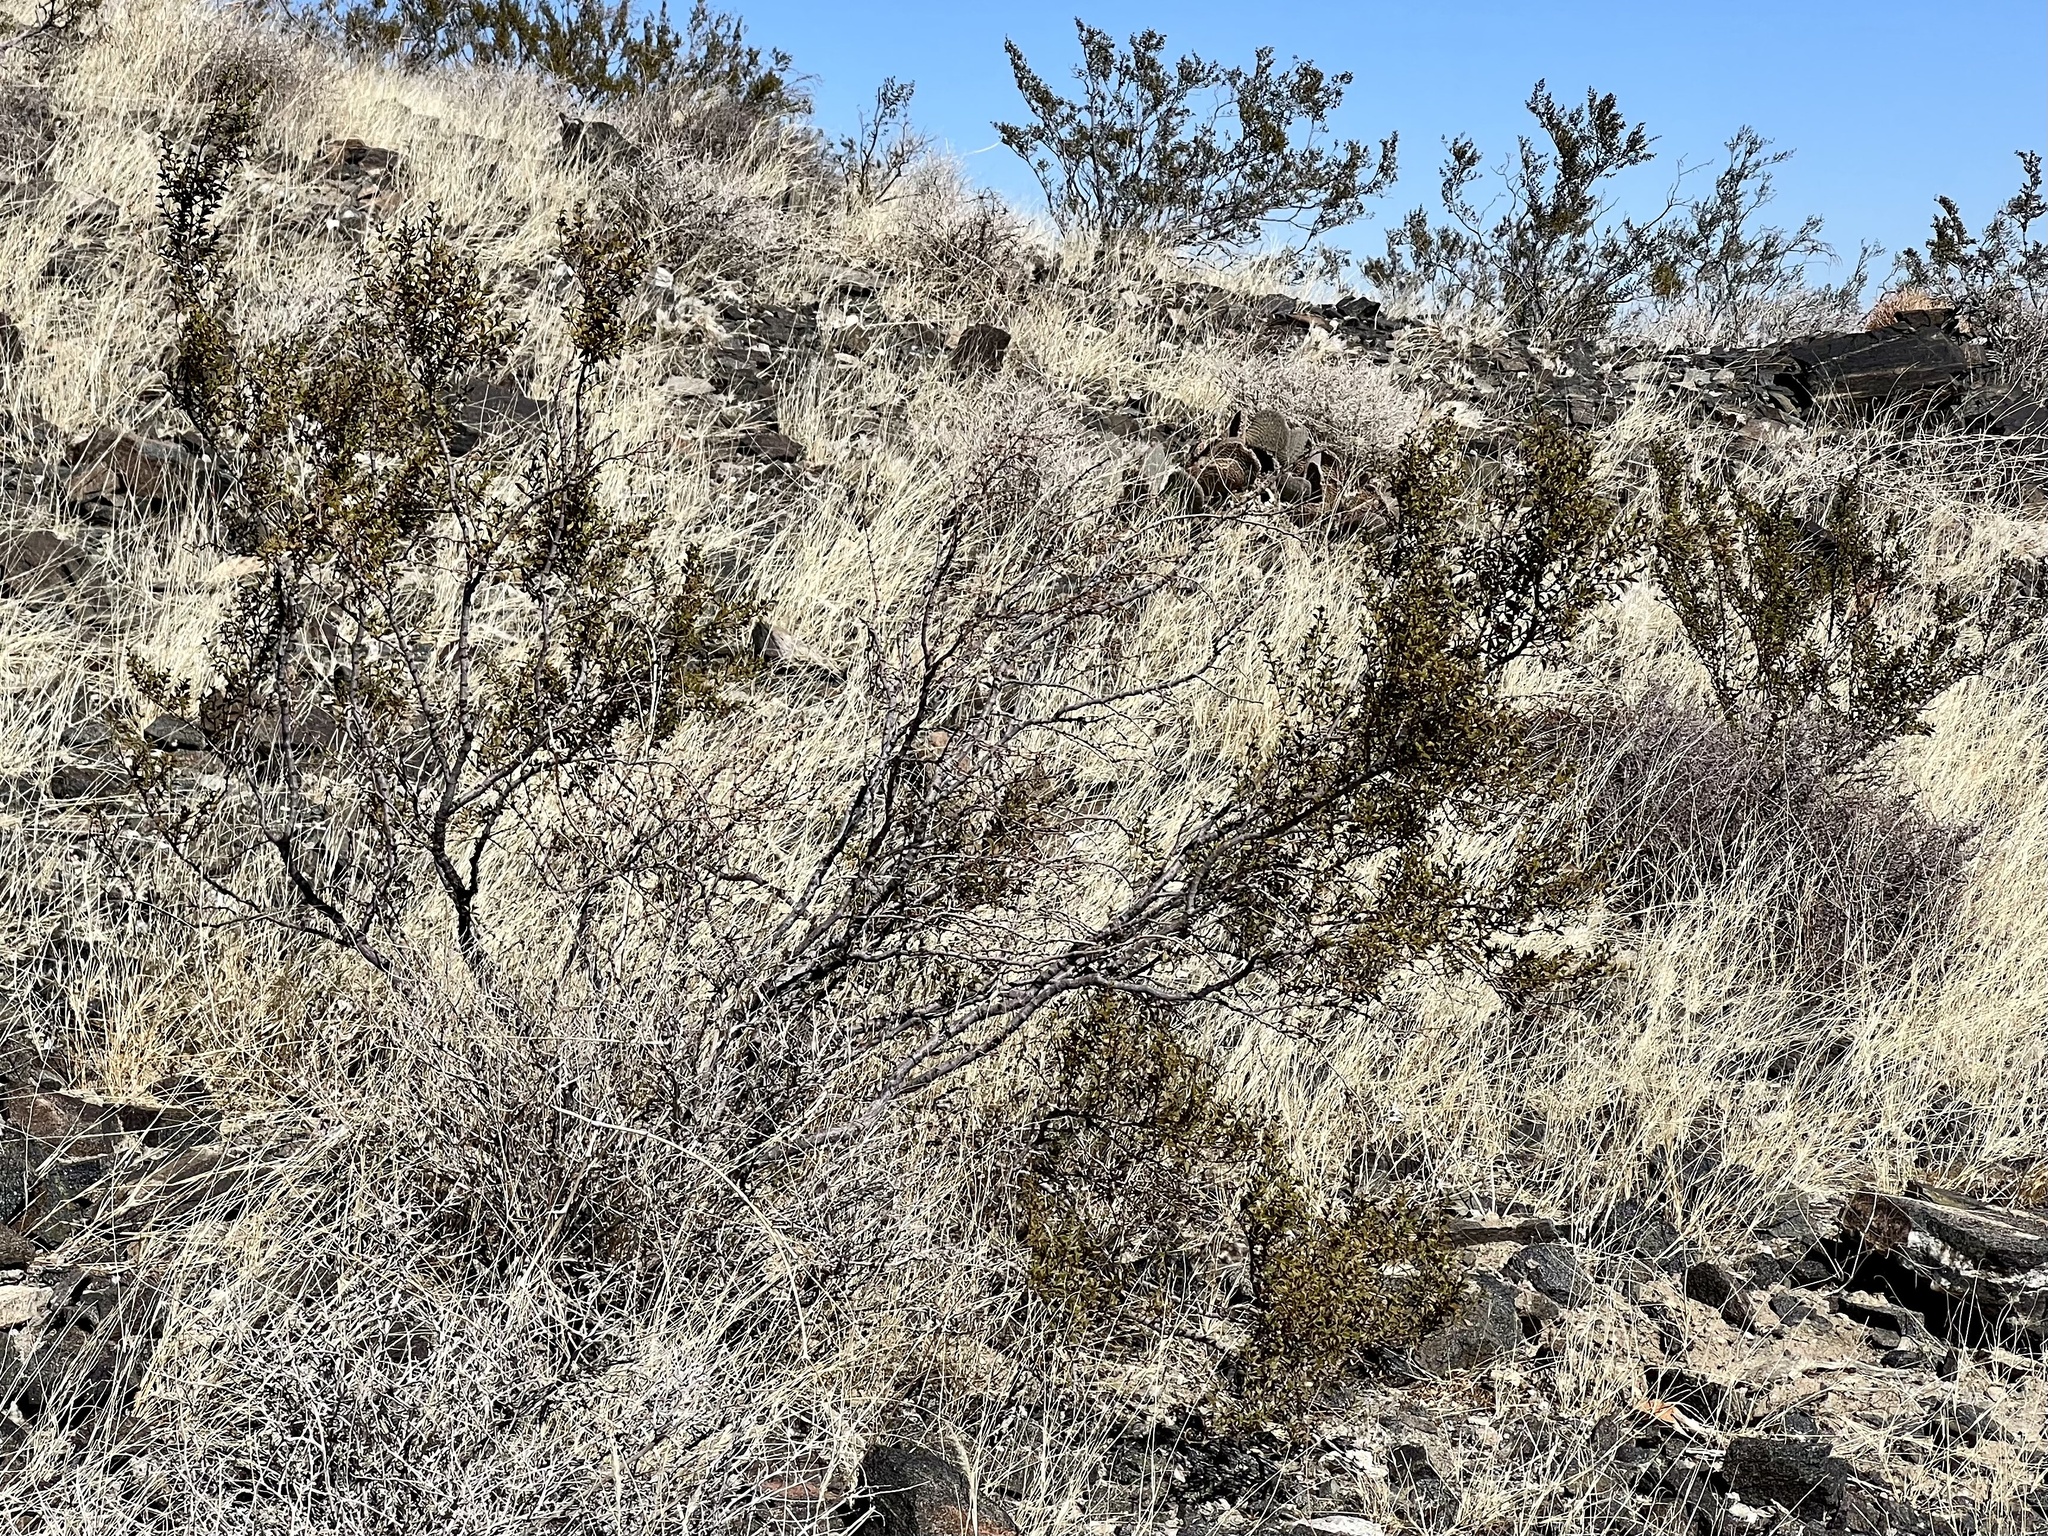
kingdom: Plantae
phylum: Tracheophyta
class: Magnoliopsida
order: Zygophyllales
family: Zygophyllaceae
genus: Larrea
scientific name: Larrea tridentata
